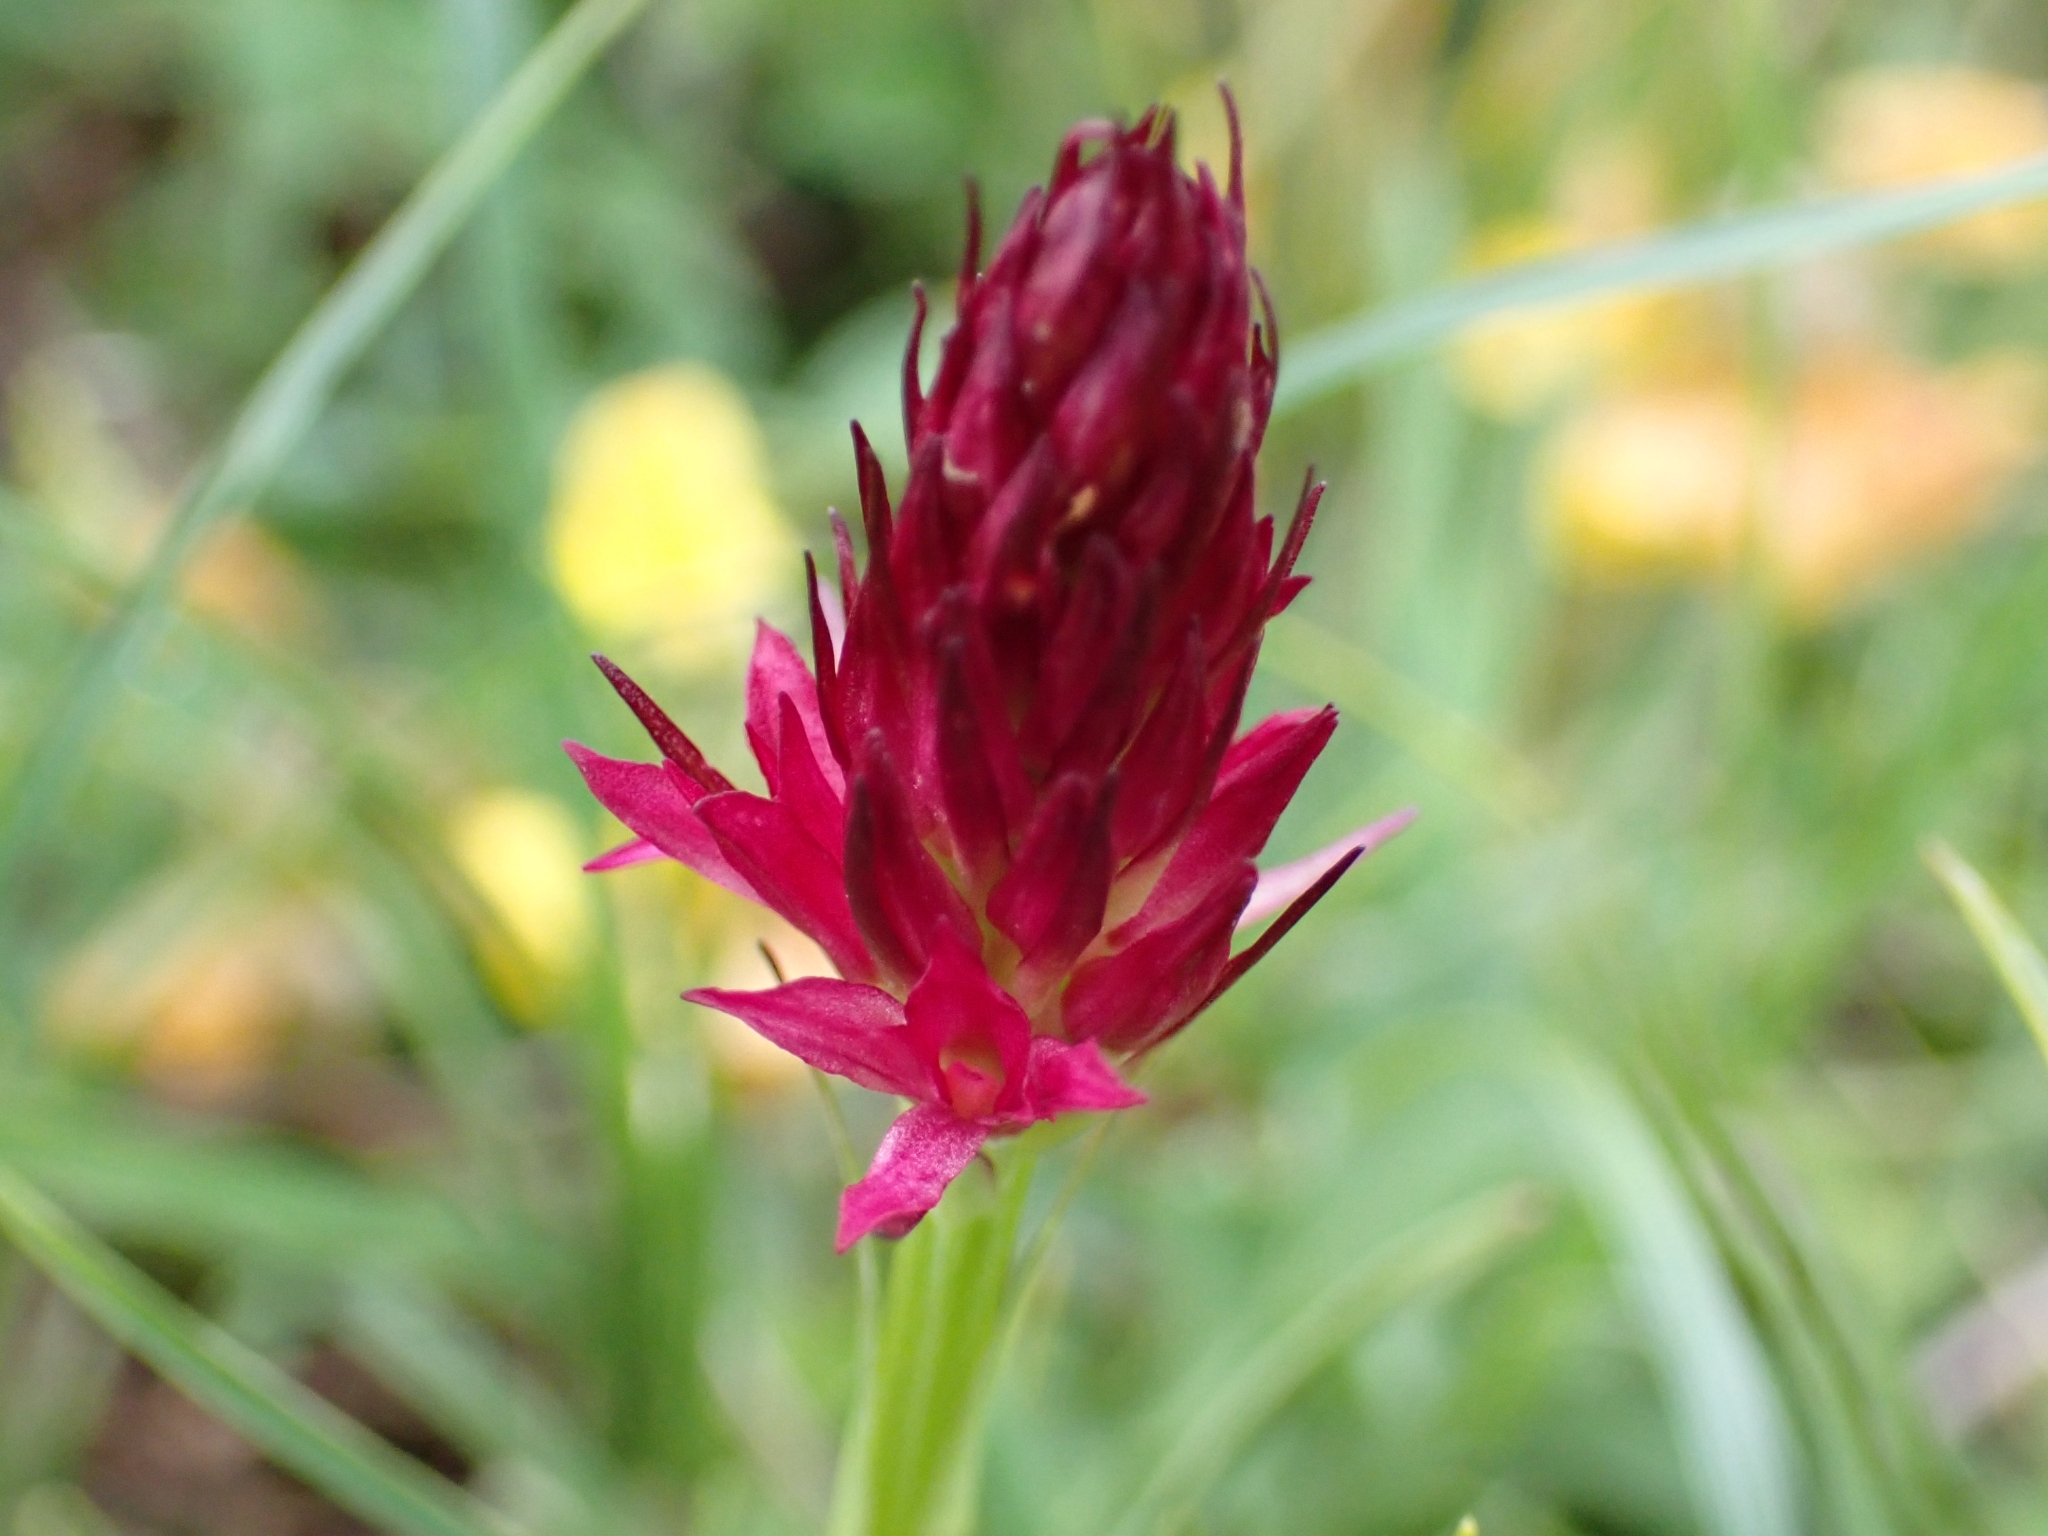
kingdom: Plantae
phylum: Tracheophyta
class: Liliopsida
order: Asparagales
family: Orchidaceae
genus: Gymnadenia
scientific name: Gymnadenia miniata
